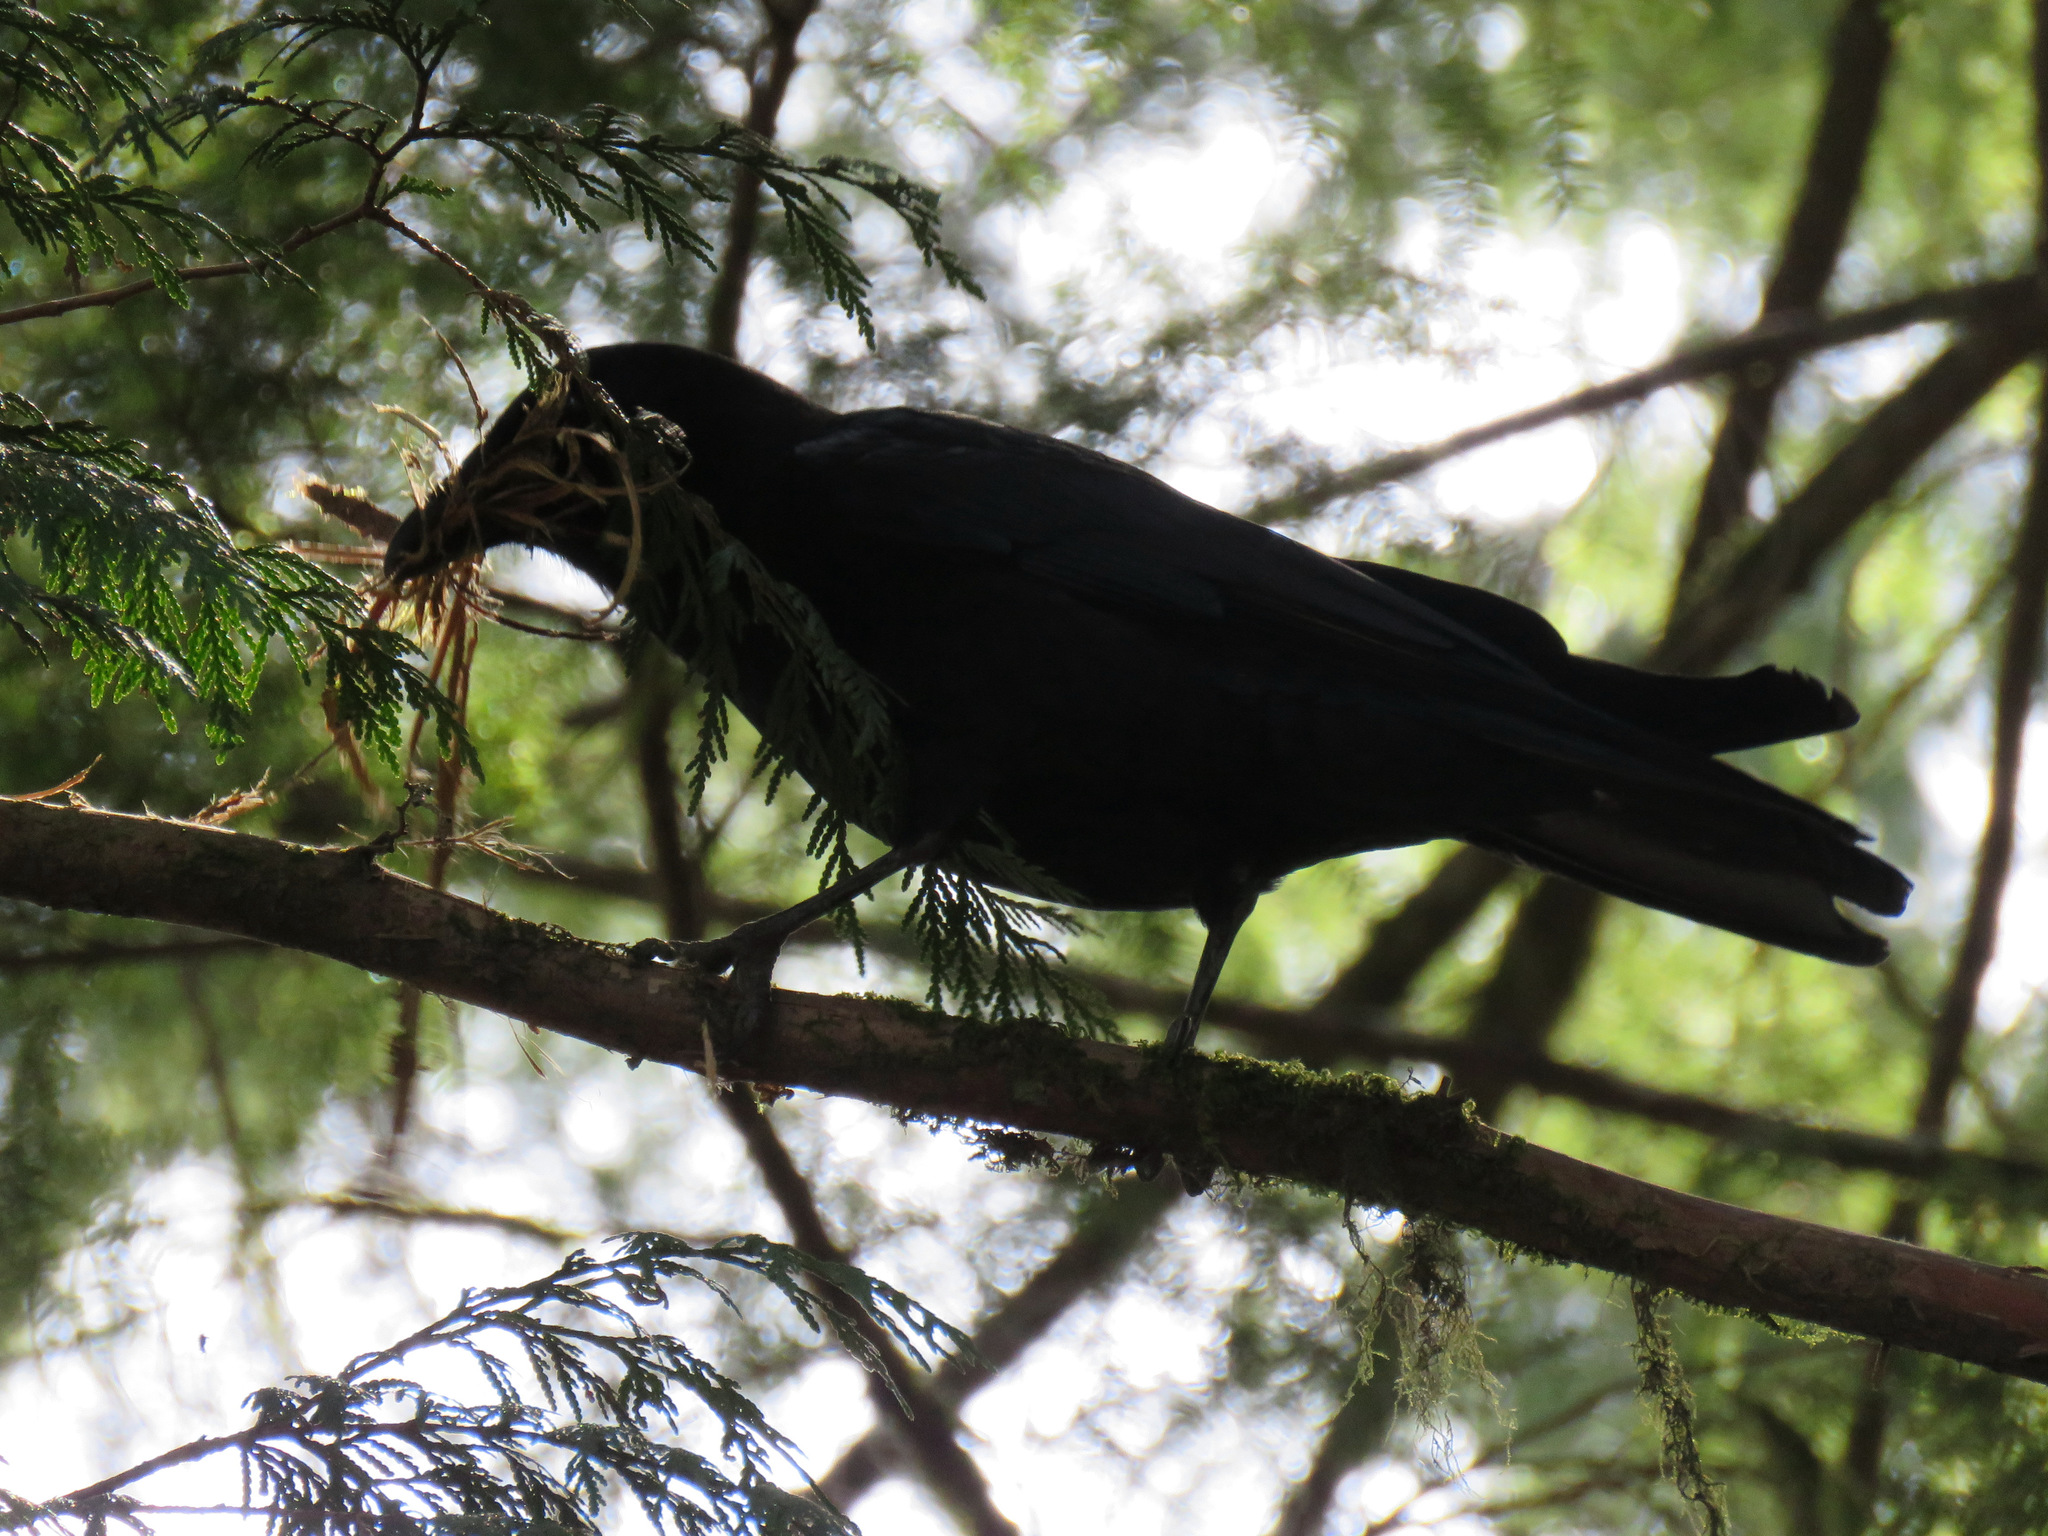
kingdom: Animalia
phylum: Chordata
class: Aves
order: Passeriformes
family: Corvidae
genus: Corvus
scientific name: Corvus brachyrhynchos
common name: American crow
